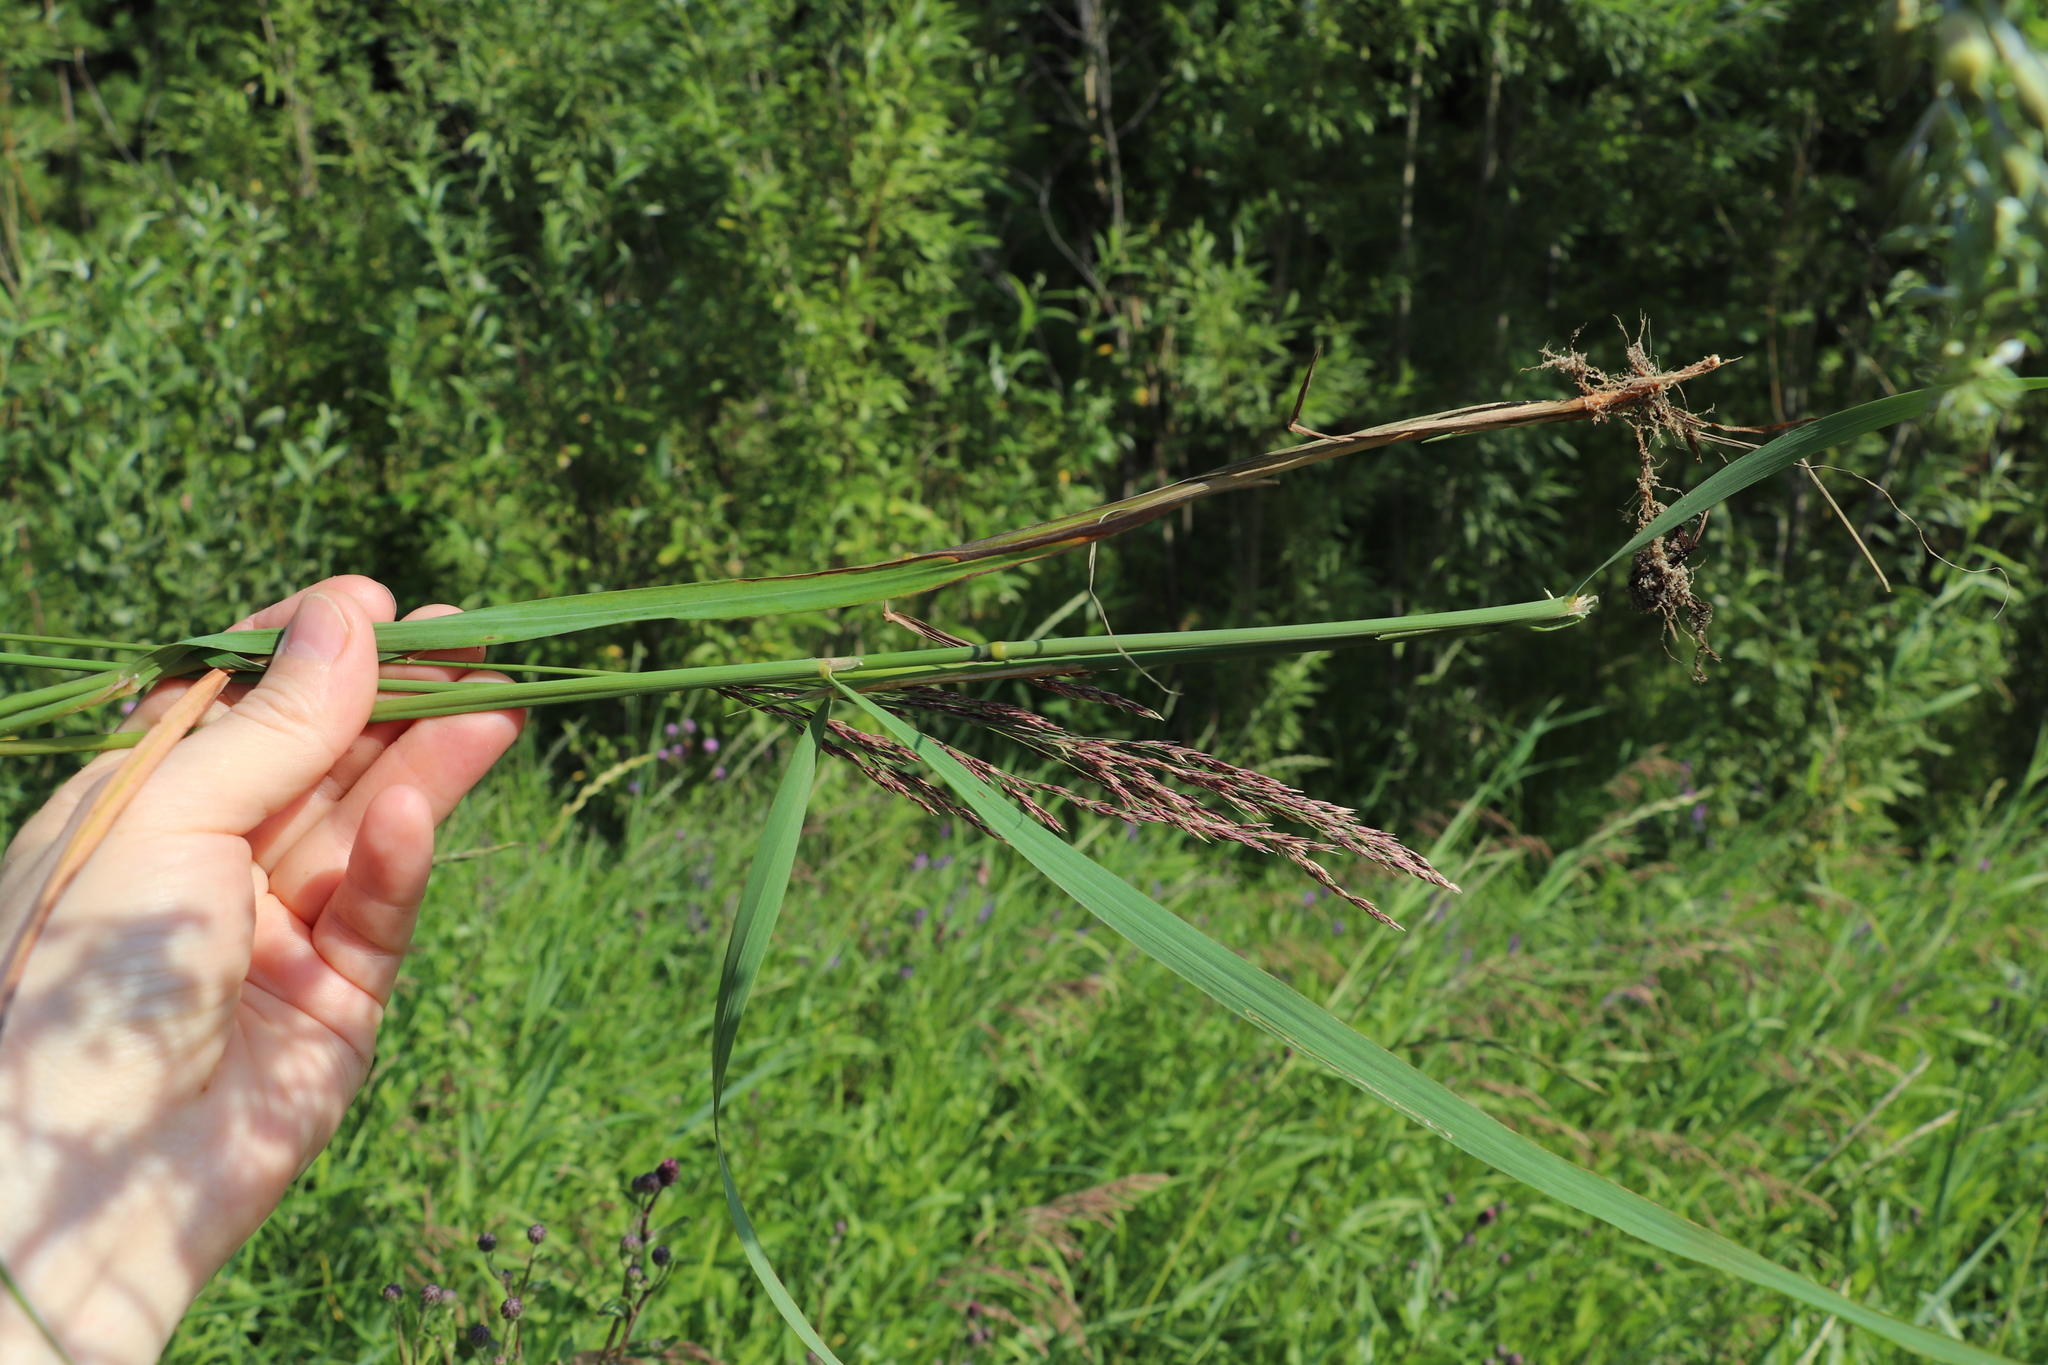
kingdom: Plantae
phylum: Tracheophyta
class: Liliopsida
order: Poales
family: Poaceae
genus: Calamagrostis
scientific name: Calamagrostis purpurea
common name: Scandinavian small-reed
